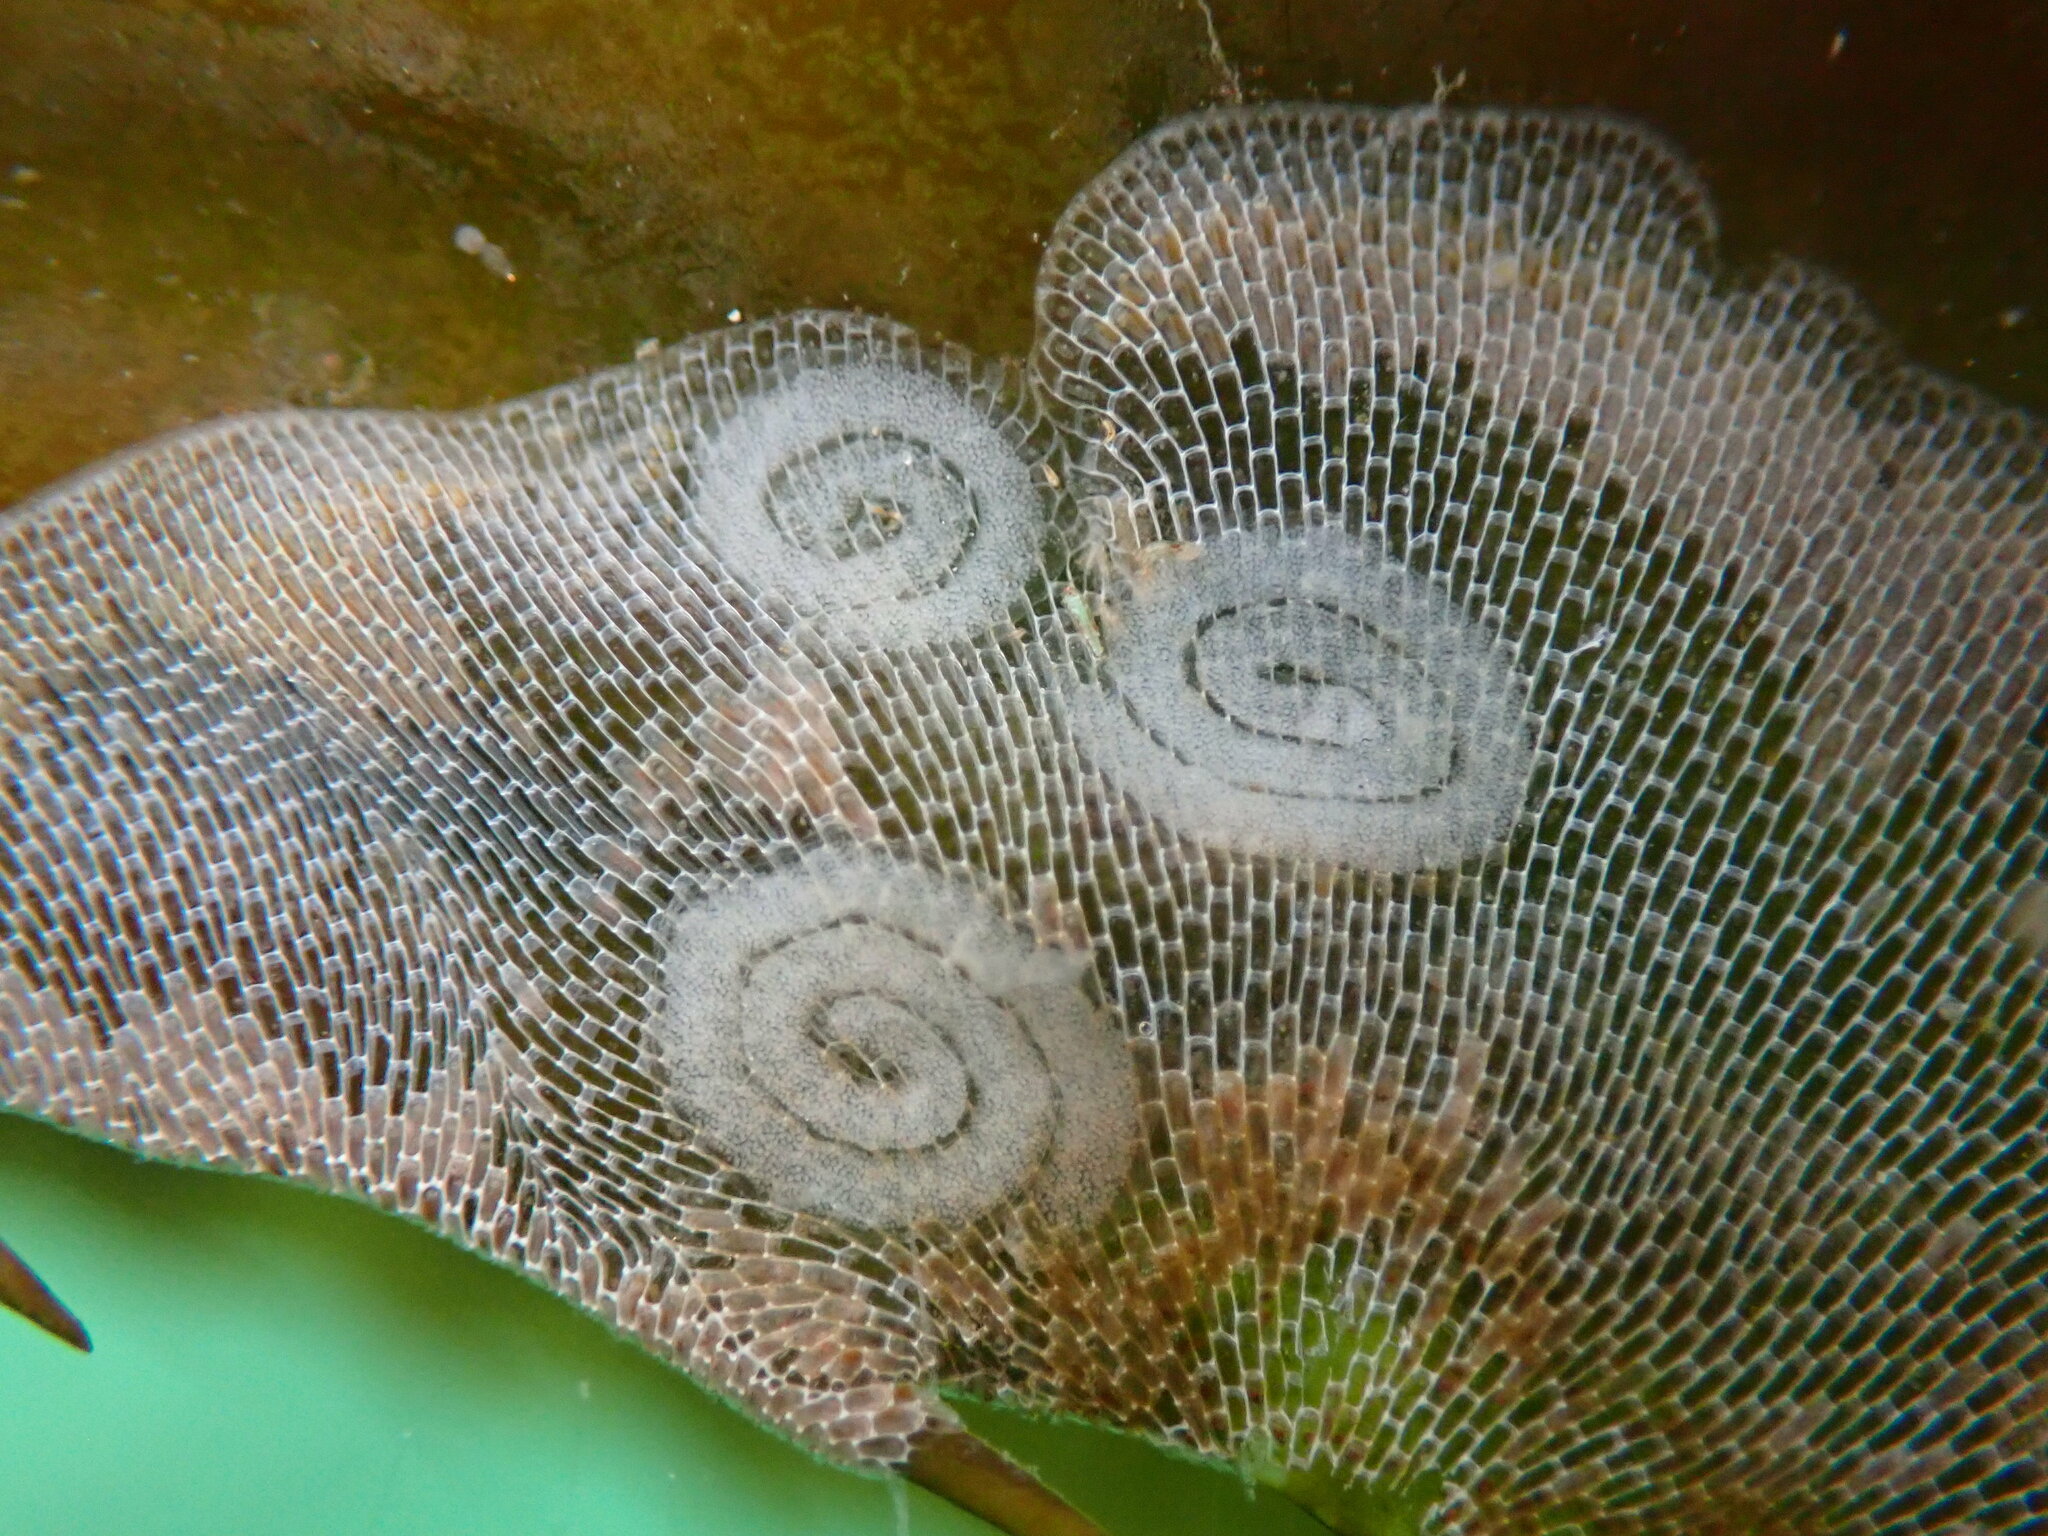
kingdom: Animalia
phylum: Mollusca
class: Gastropoda
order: Nudibranchia
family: Corambidae
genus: Corambe
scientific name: Corambe pacifica
